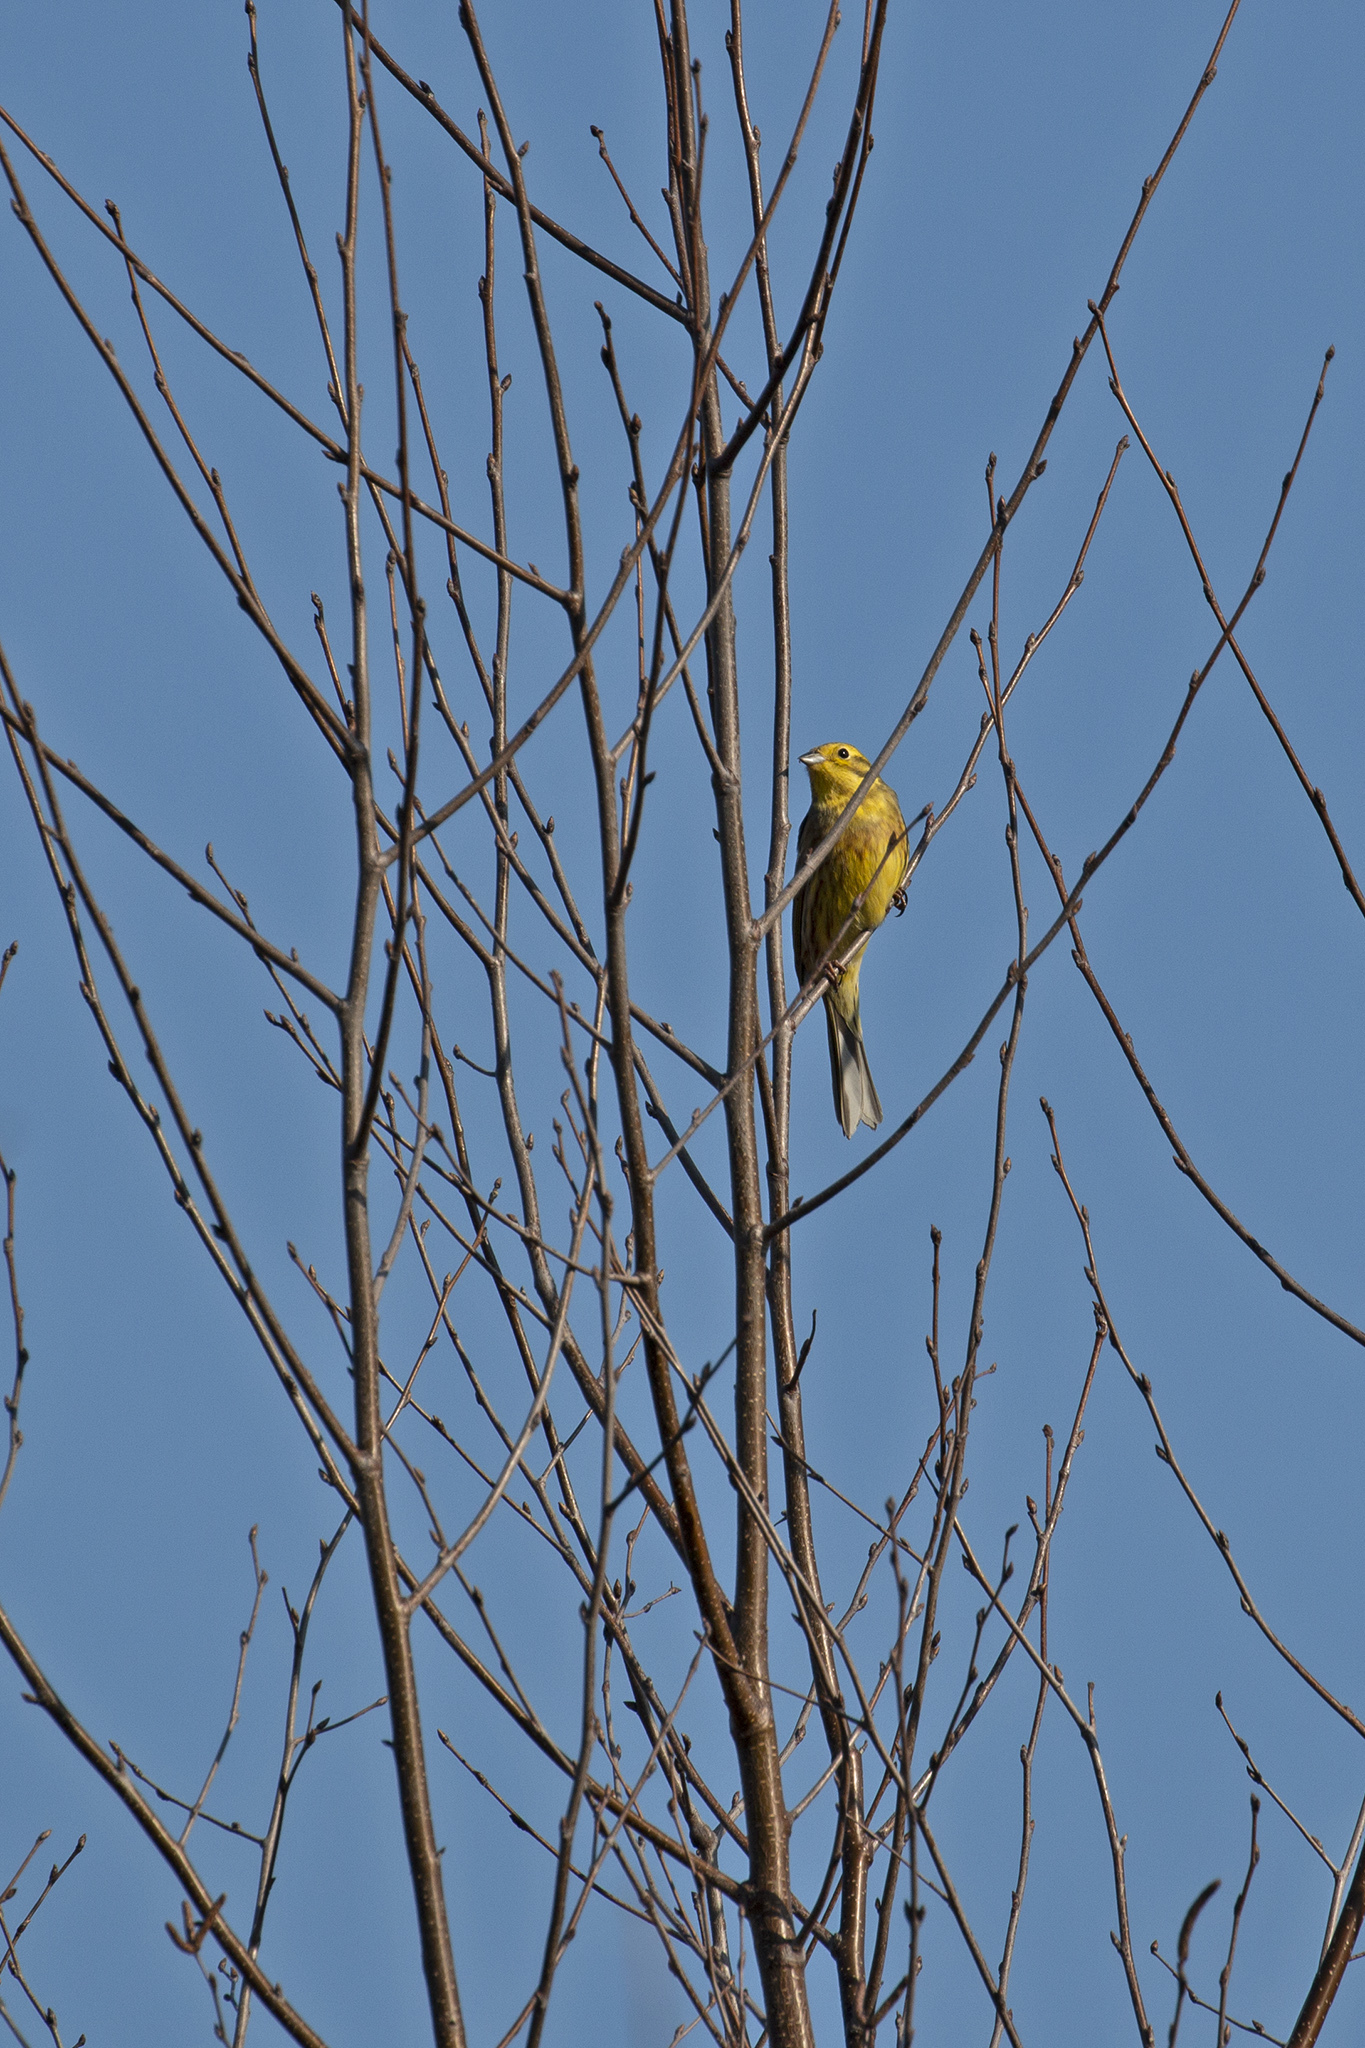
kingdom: Animalia
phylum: Chordata
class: Aves
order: Passeriformes
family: Emberizidae
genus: Emberiza
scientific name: Emberiza citrinella
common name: Yellowhammer
